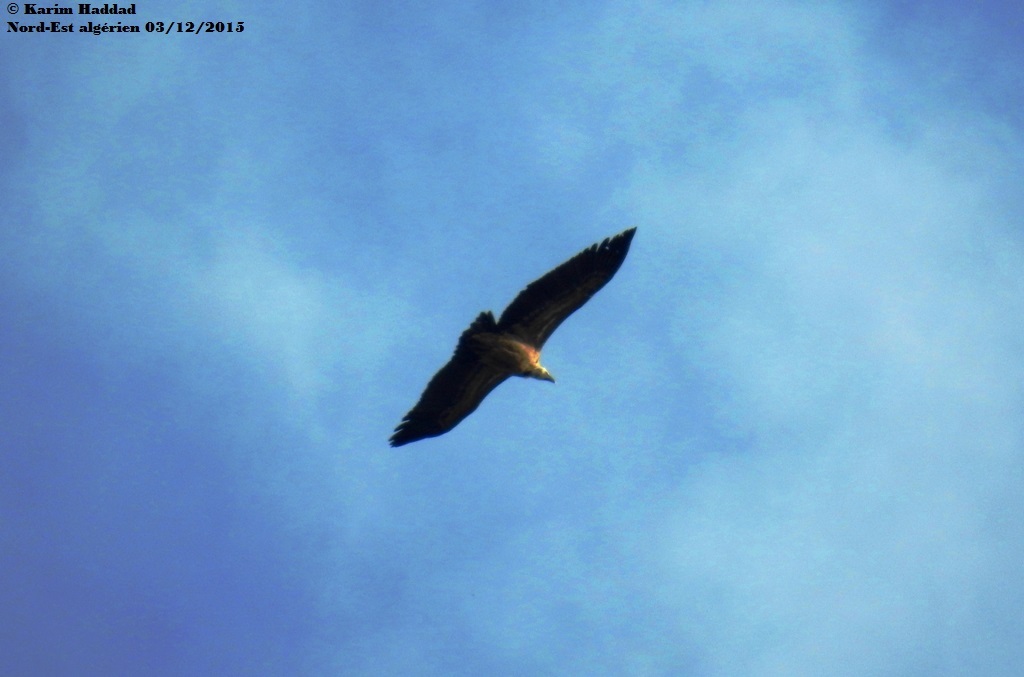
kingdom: Animalia
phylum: Chordata
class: Aves
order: Accipitriformes
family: Accipitridae
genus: Gyps
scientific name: Gyps fulvus
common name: Griffon vulture
